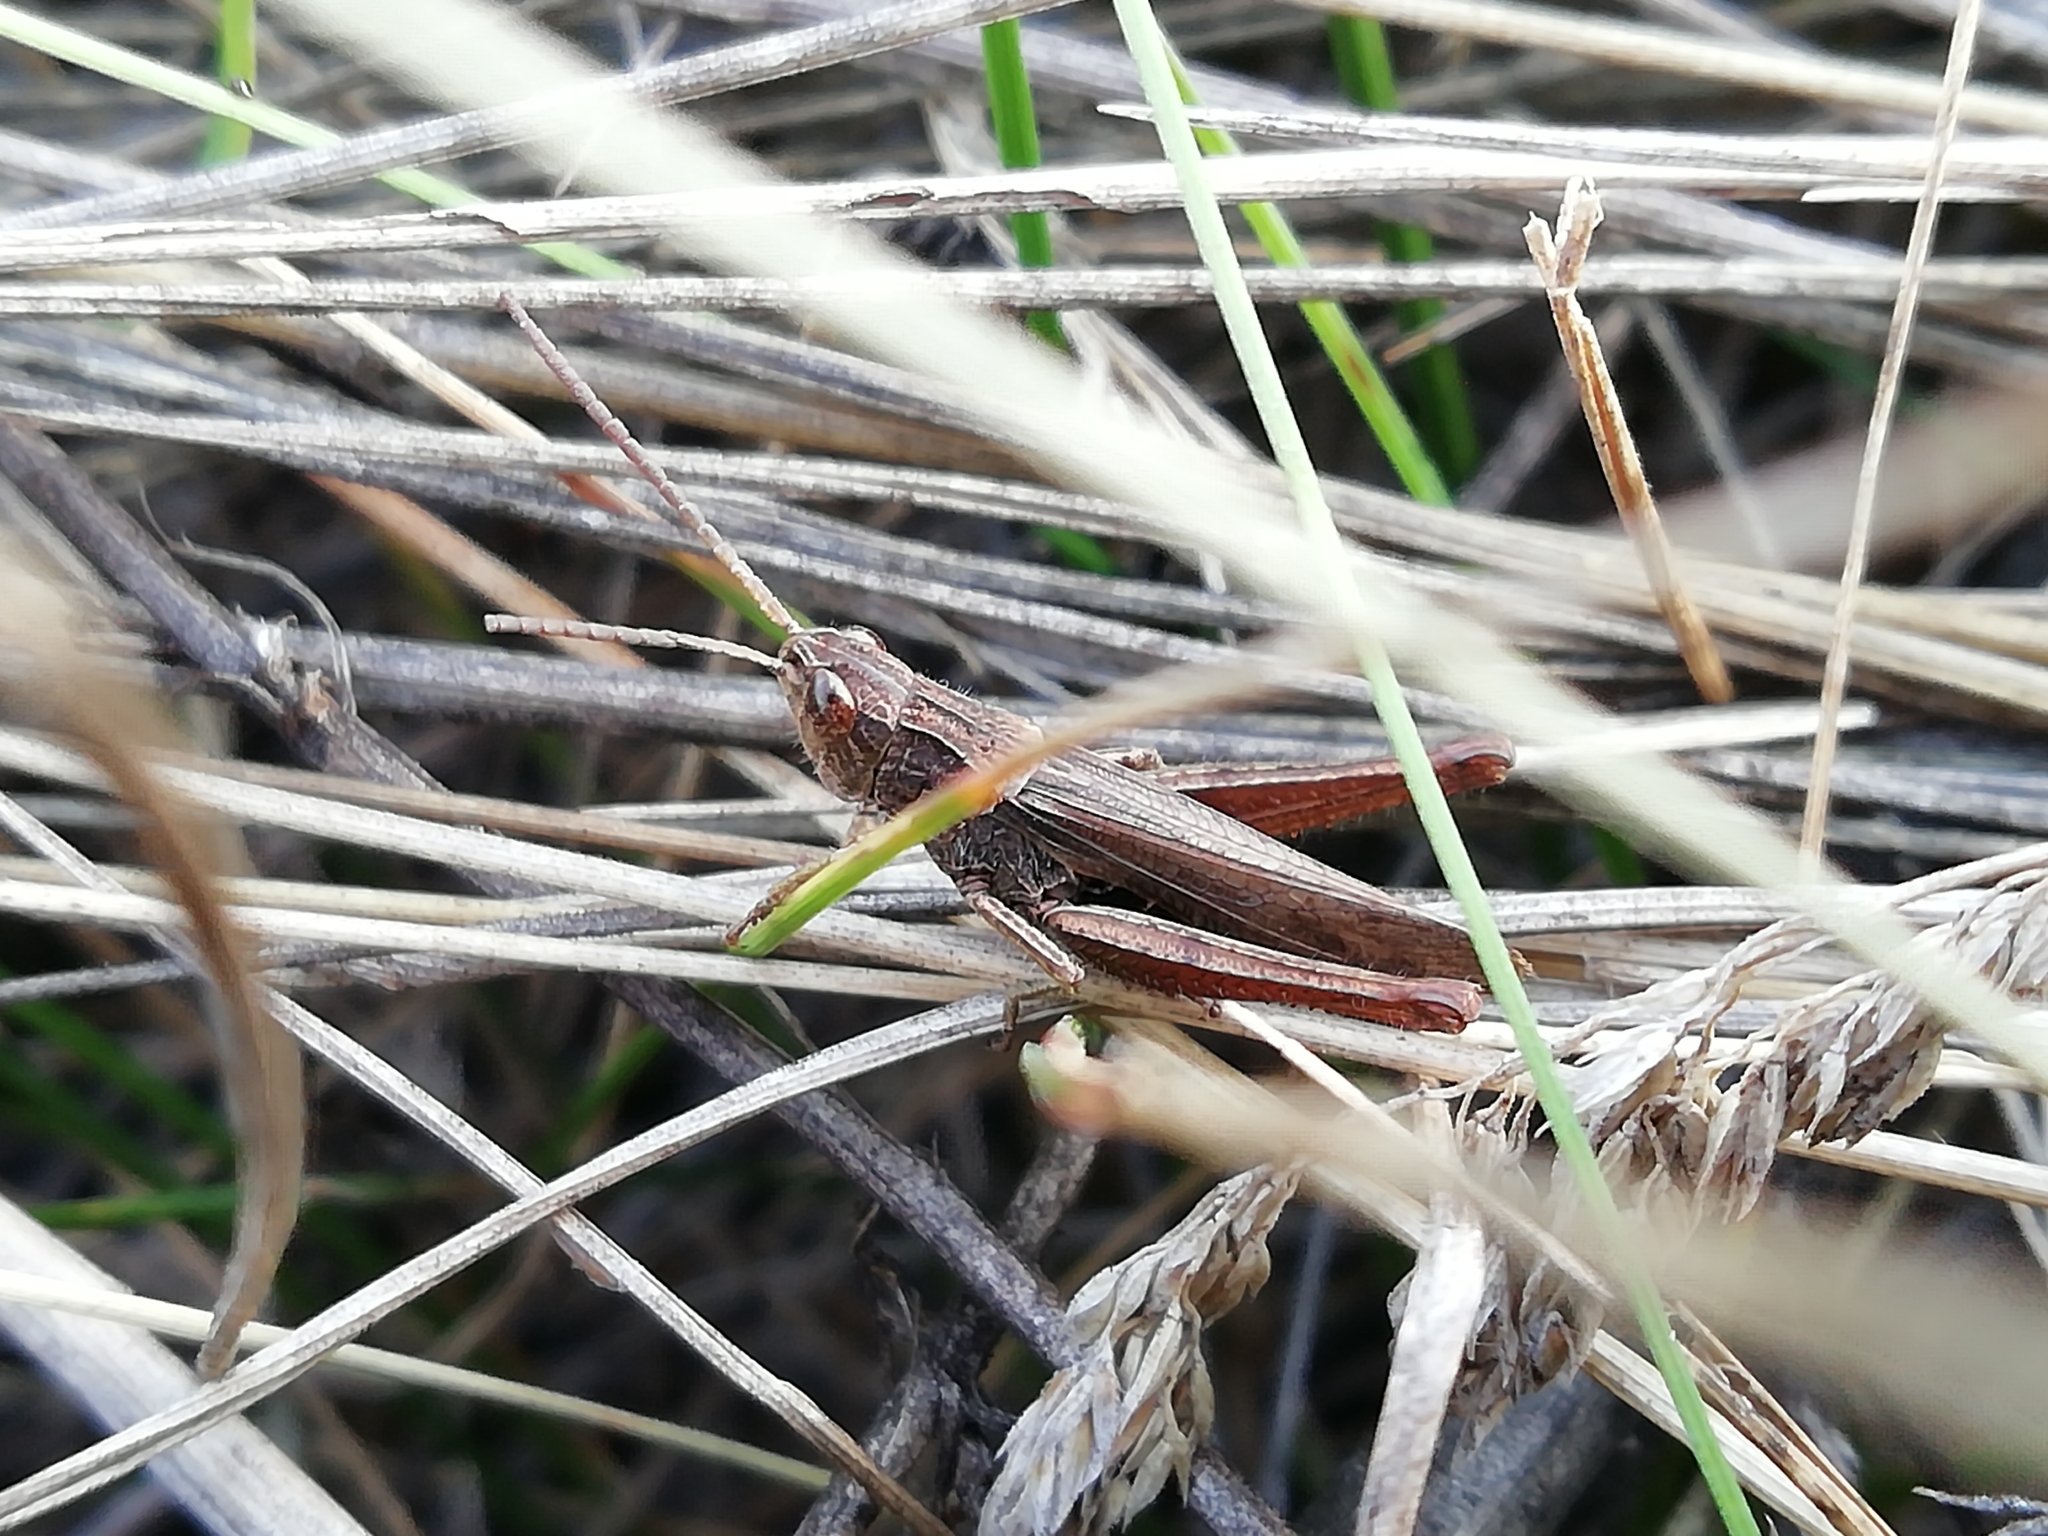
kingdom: Animalia
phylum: Arthropoda
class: Insecta
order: Orthoptera
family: Acrididae
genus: Chorthippus
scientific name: Chorthippus dorsatus
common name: Steppe grasshopper
